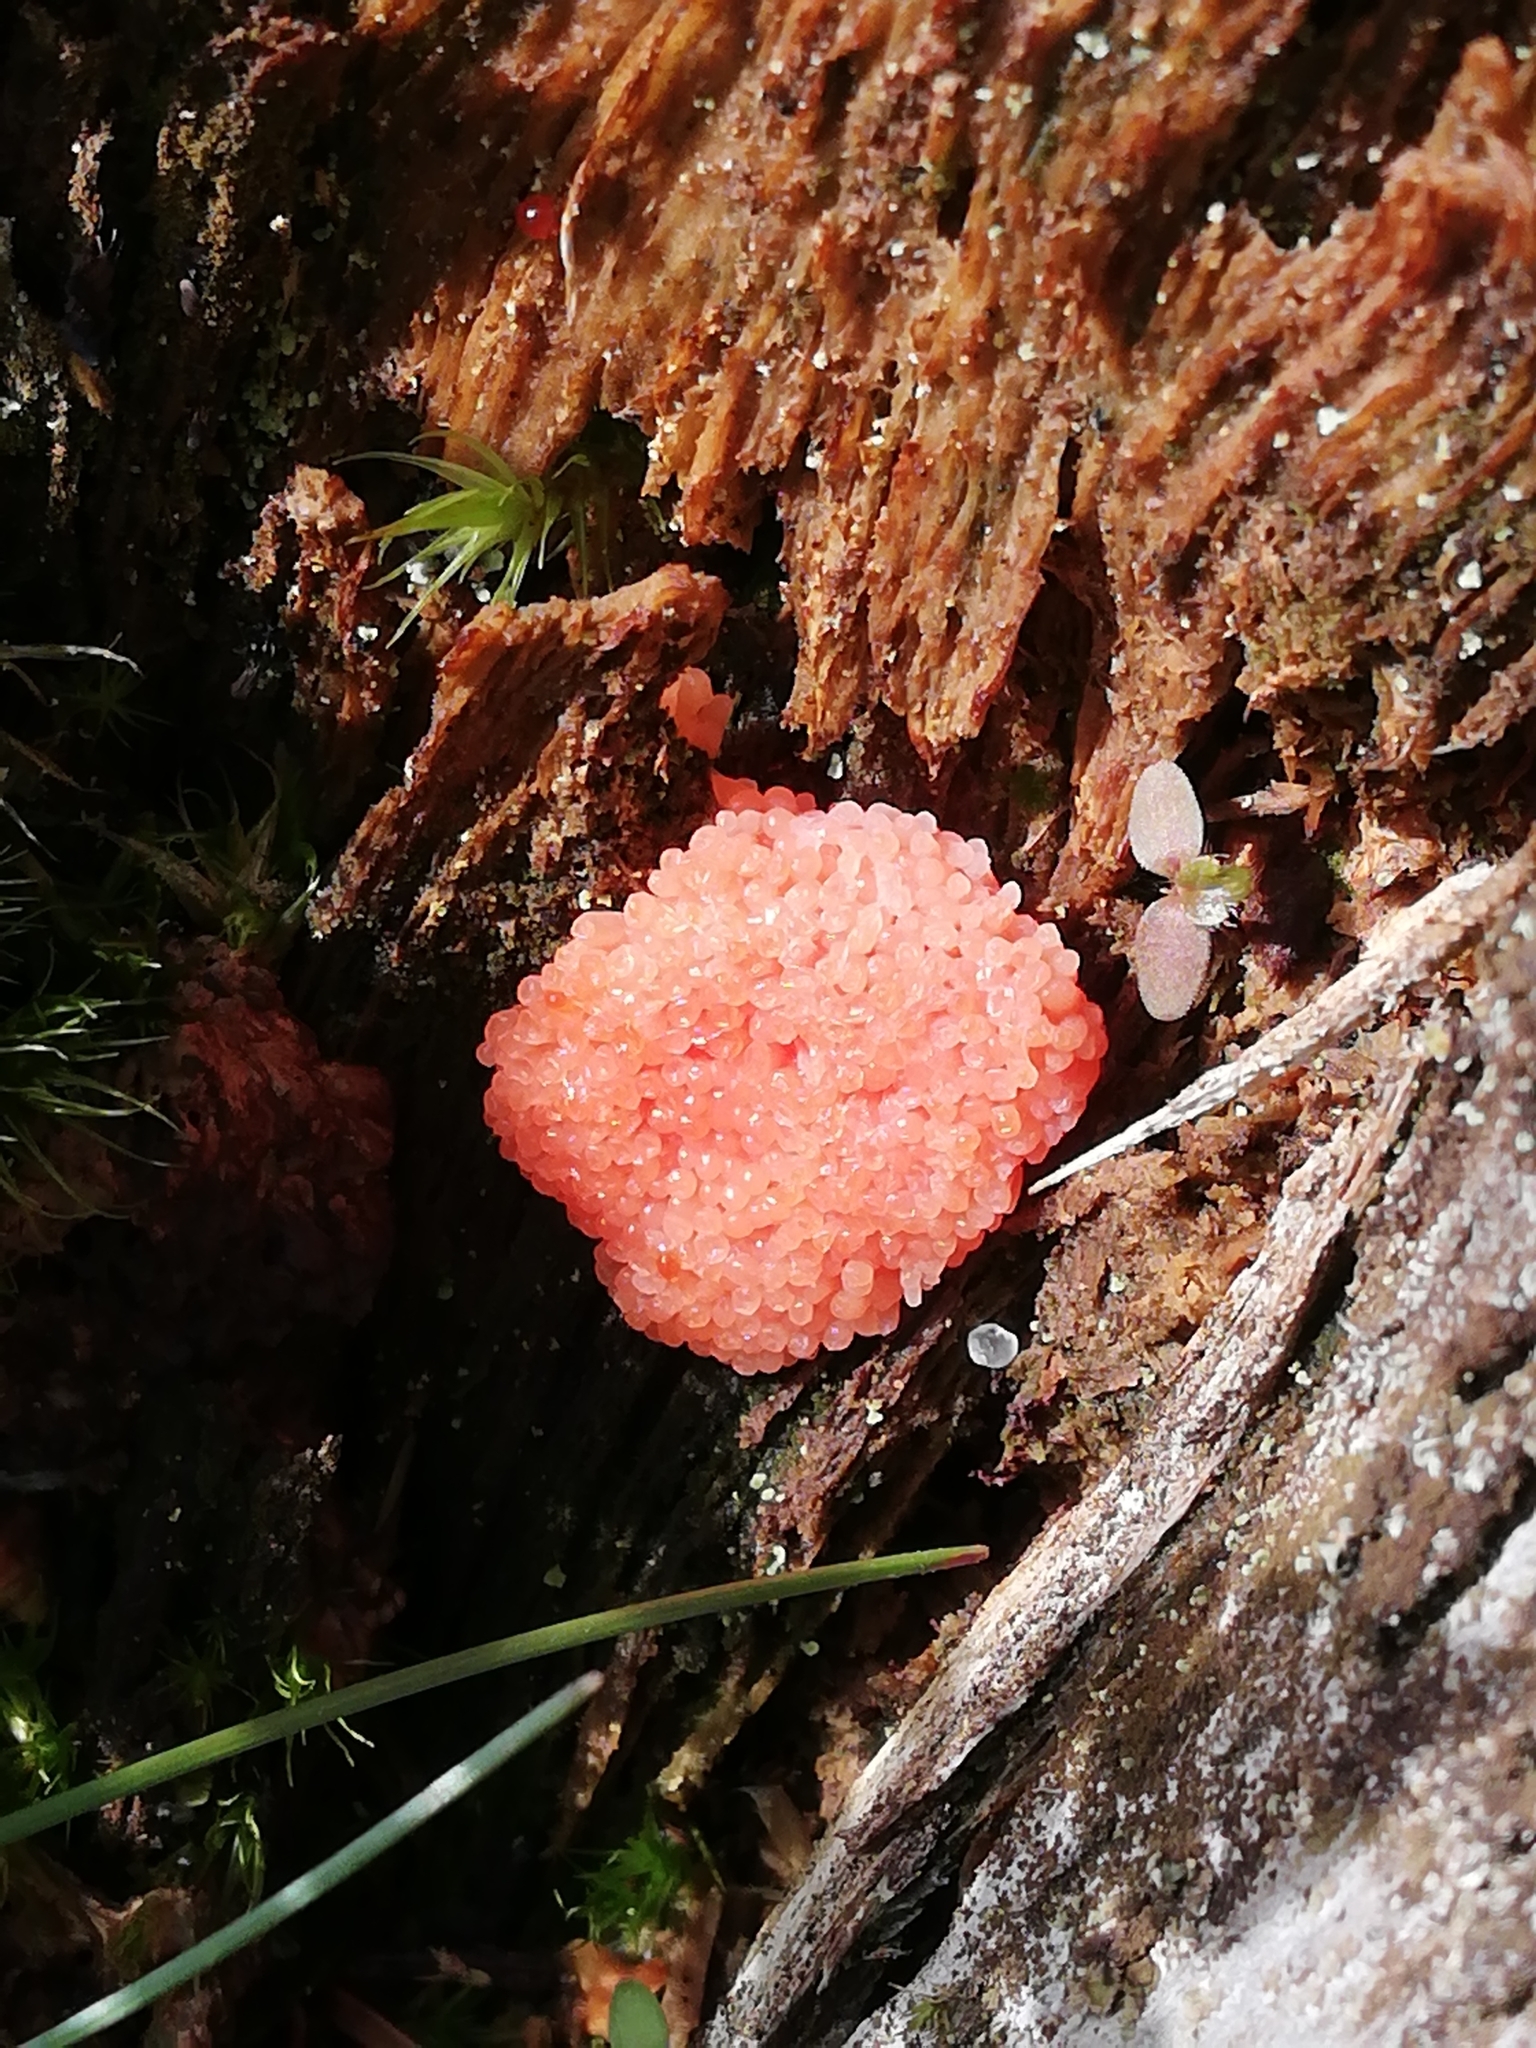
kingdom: Protozoa
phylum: Mycetozoa
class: Myxomycetes
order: Cribrariales
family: Tubiferaceae
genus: Tubifera
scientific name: Tubifera ferruginosa
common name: Red raspberry slime mold
